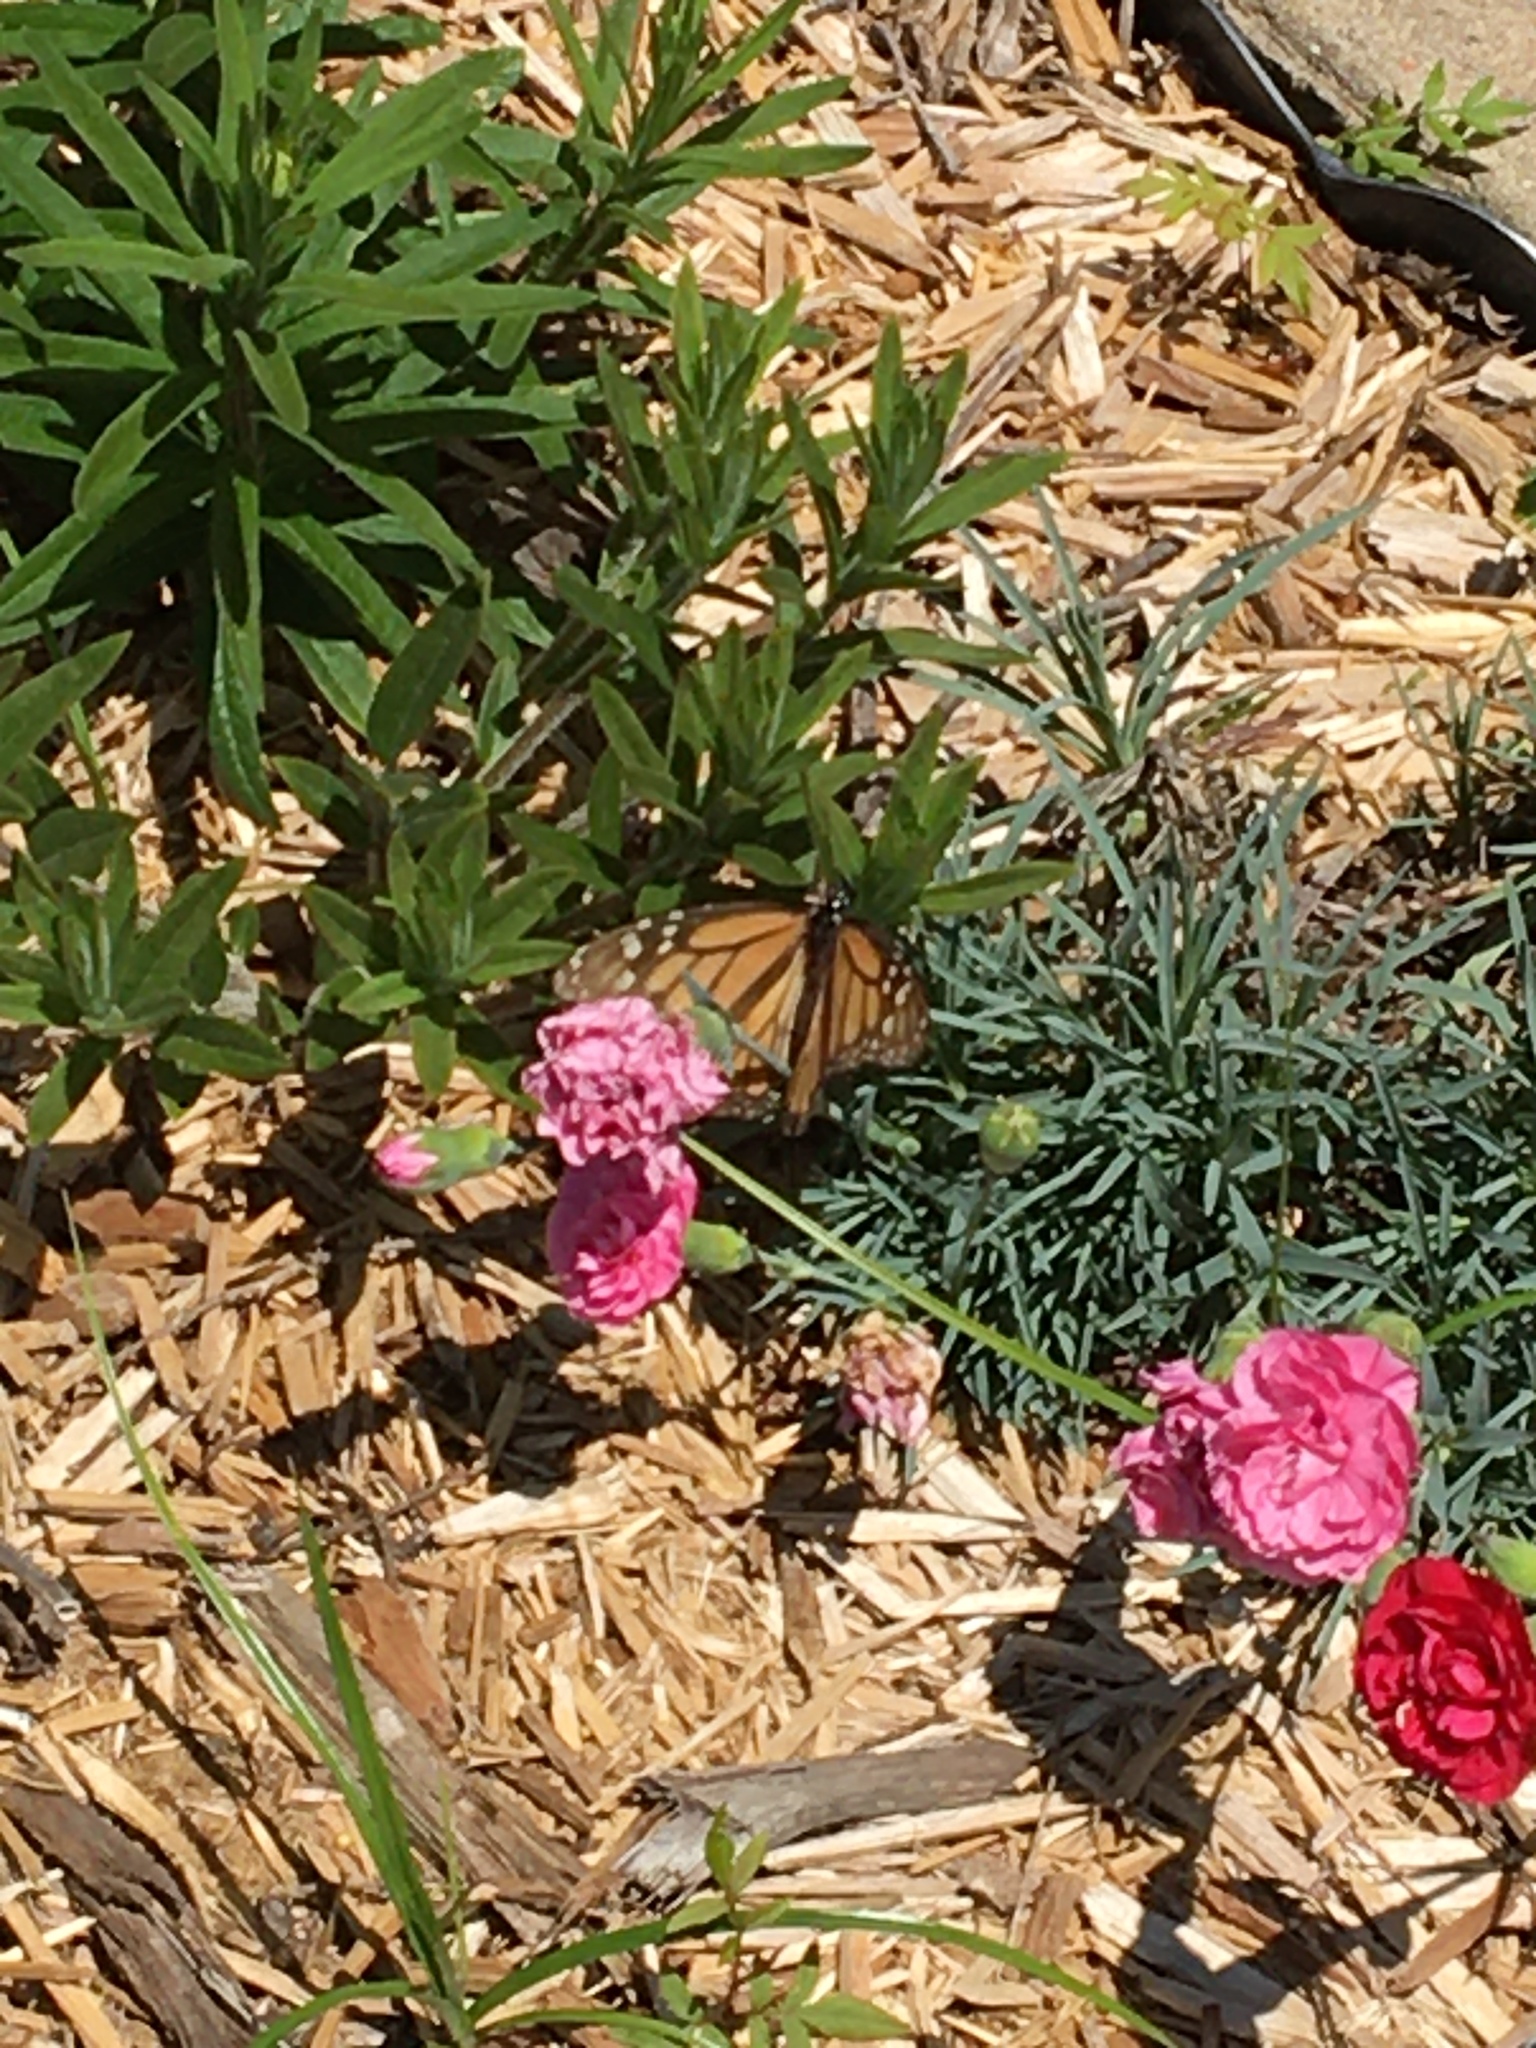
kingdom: Animalia
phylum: Arthropoda
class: Insecta
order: Lepidoptera
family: Nymphalidae
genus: Danaus
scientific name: Danaus plexippus
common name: Monarch
